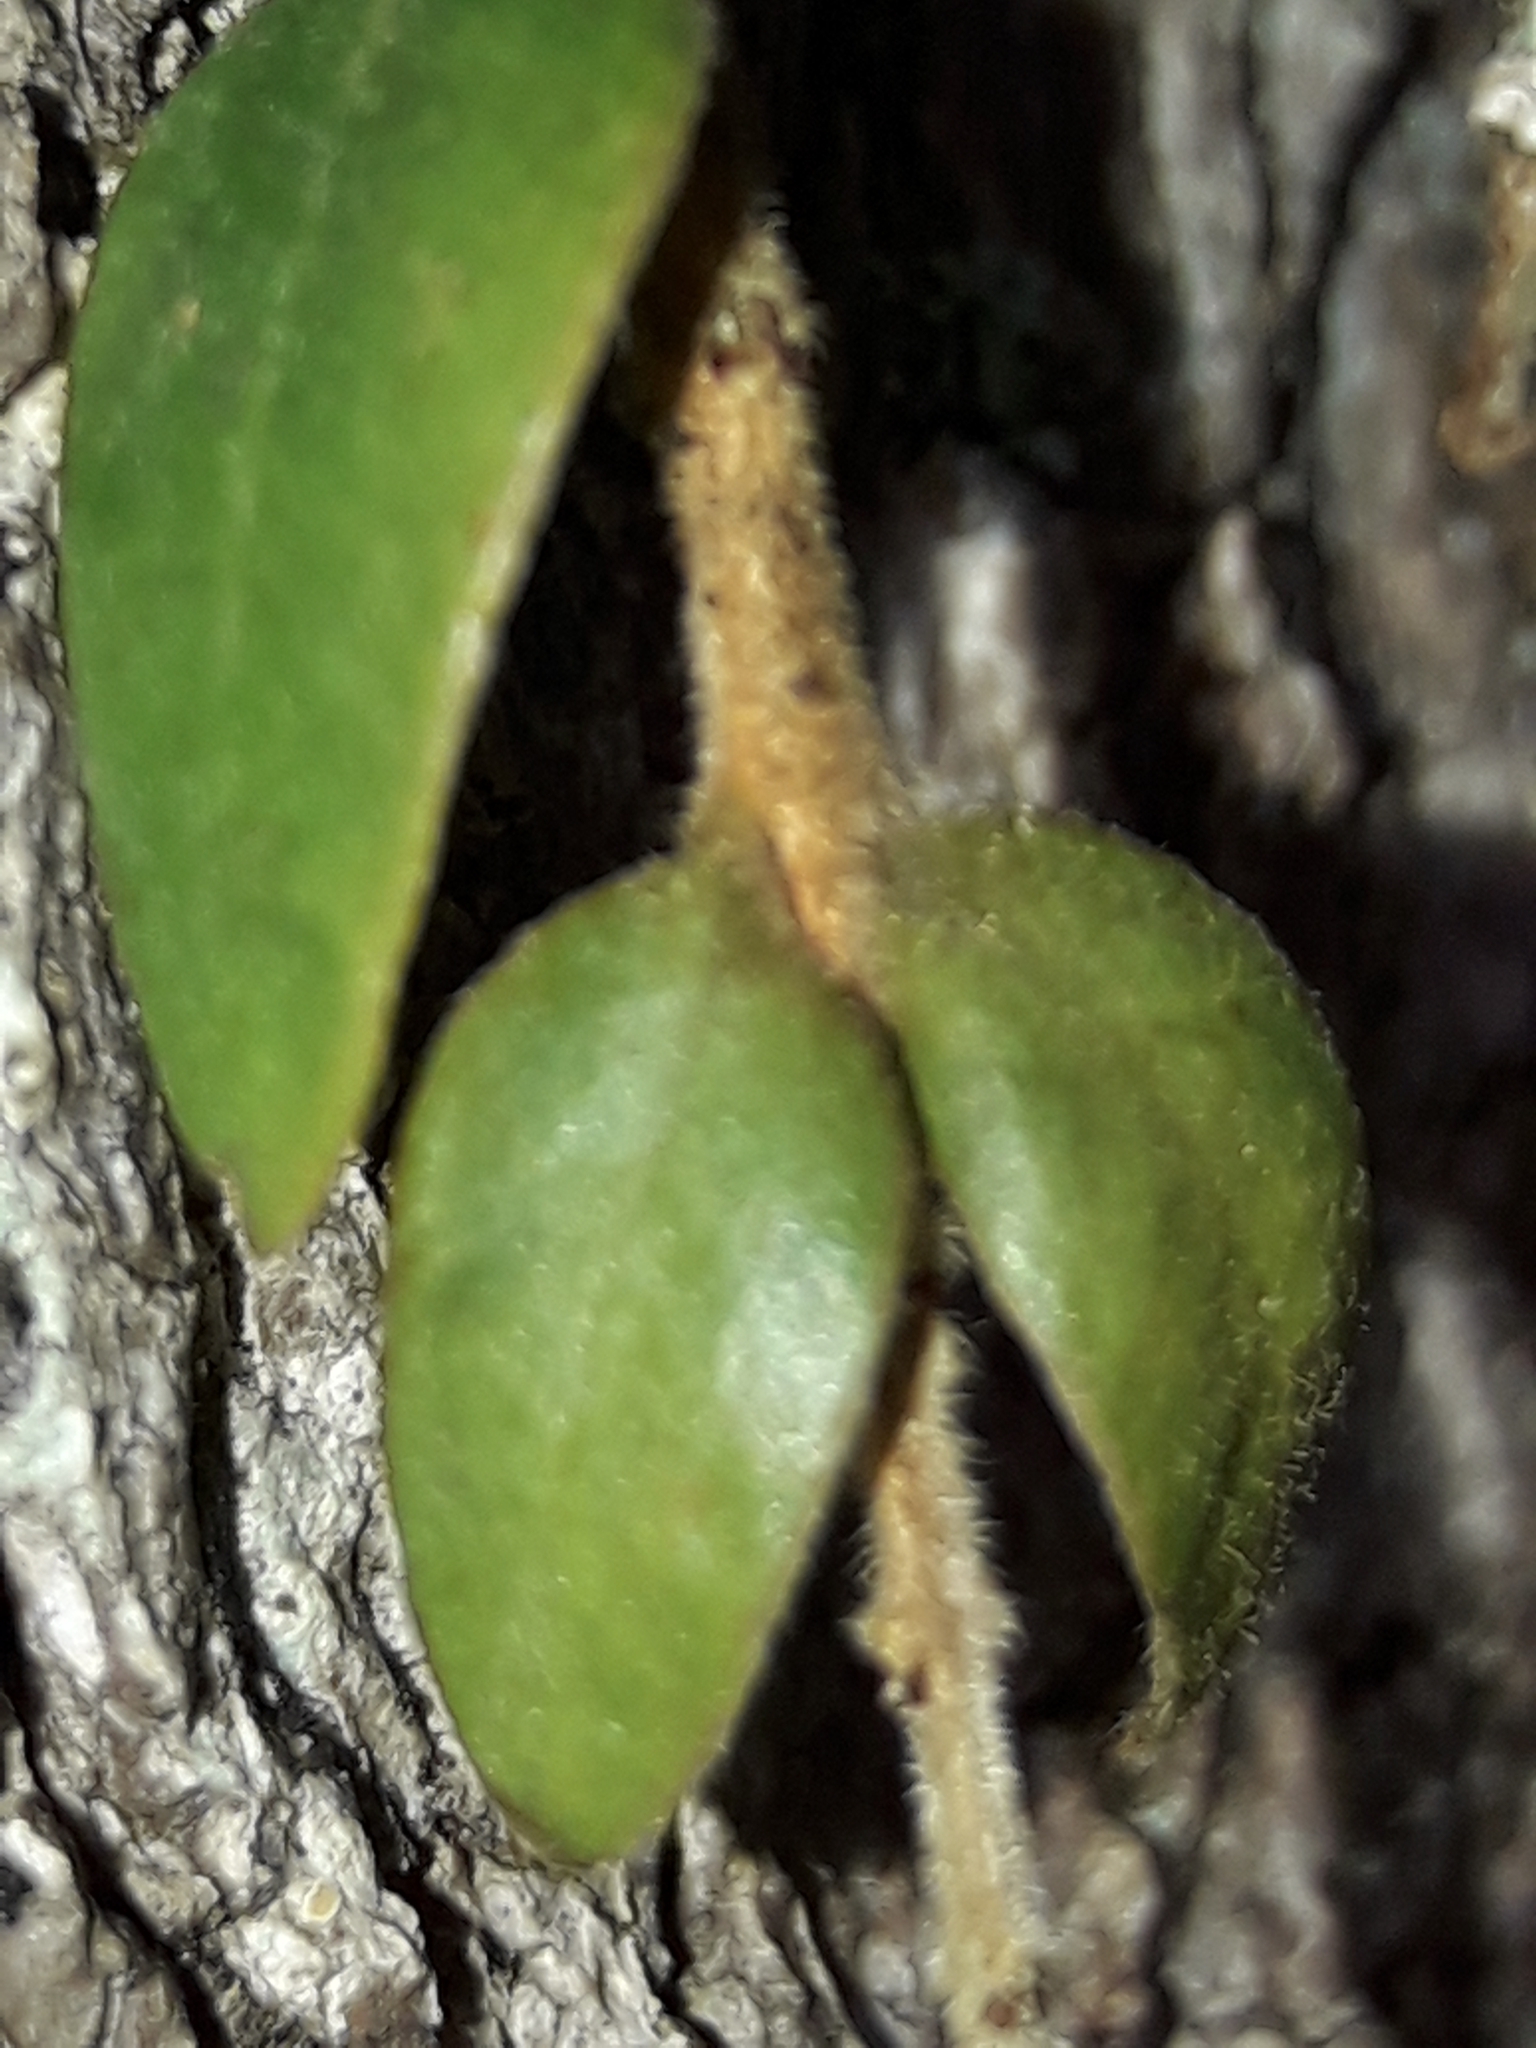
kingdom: Plantae
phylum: Tracheophyta
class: Magnoliopsida
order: Myrtales
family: Myrtaceae
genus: Metrosideros
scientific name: Metrosideros colensoi
